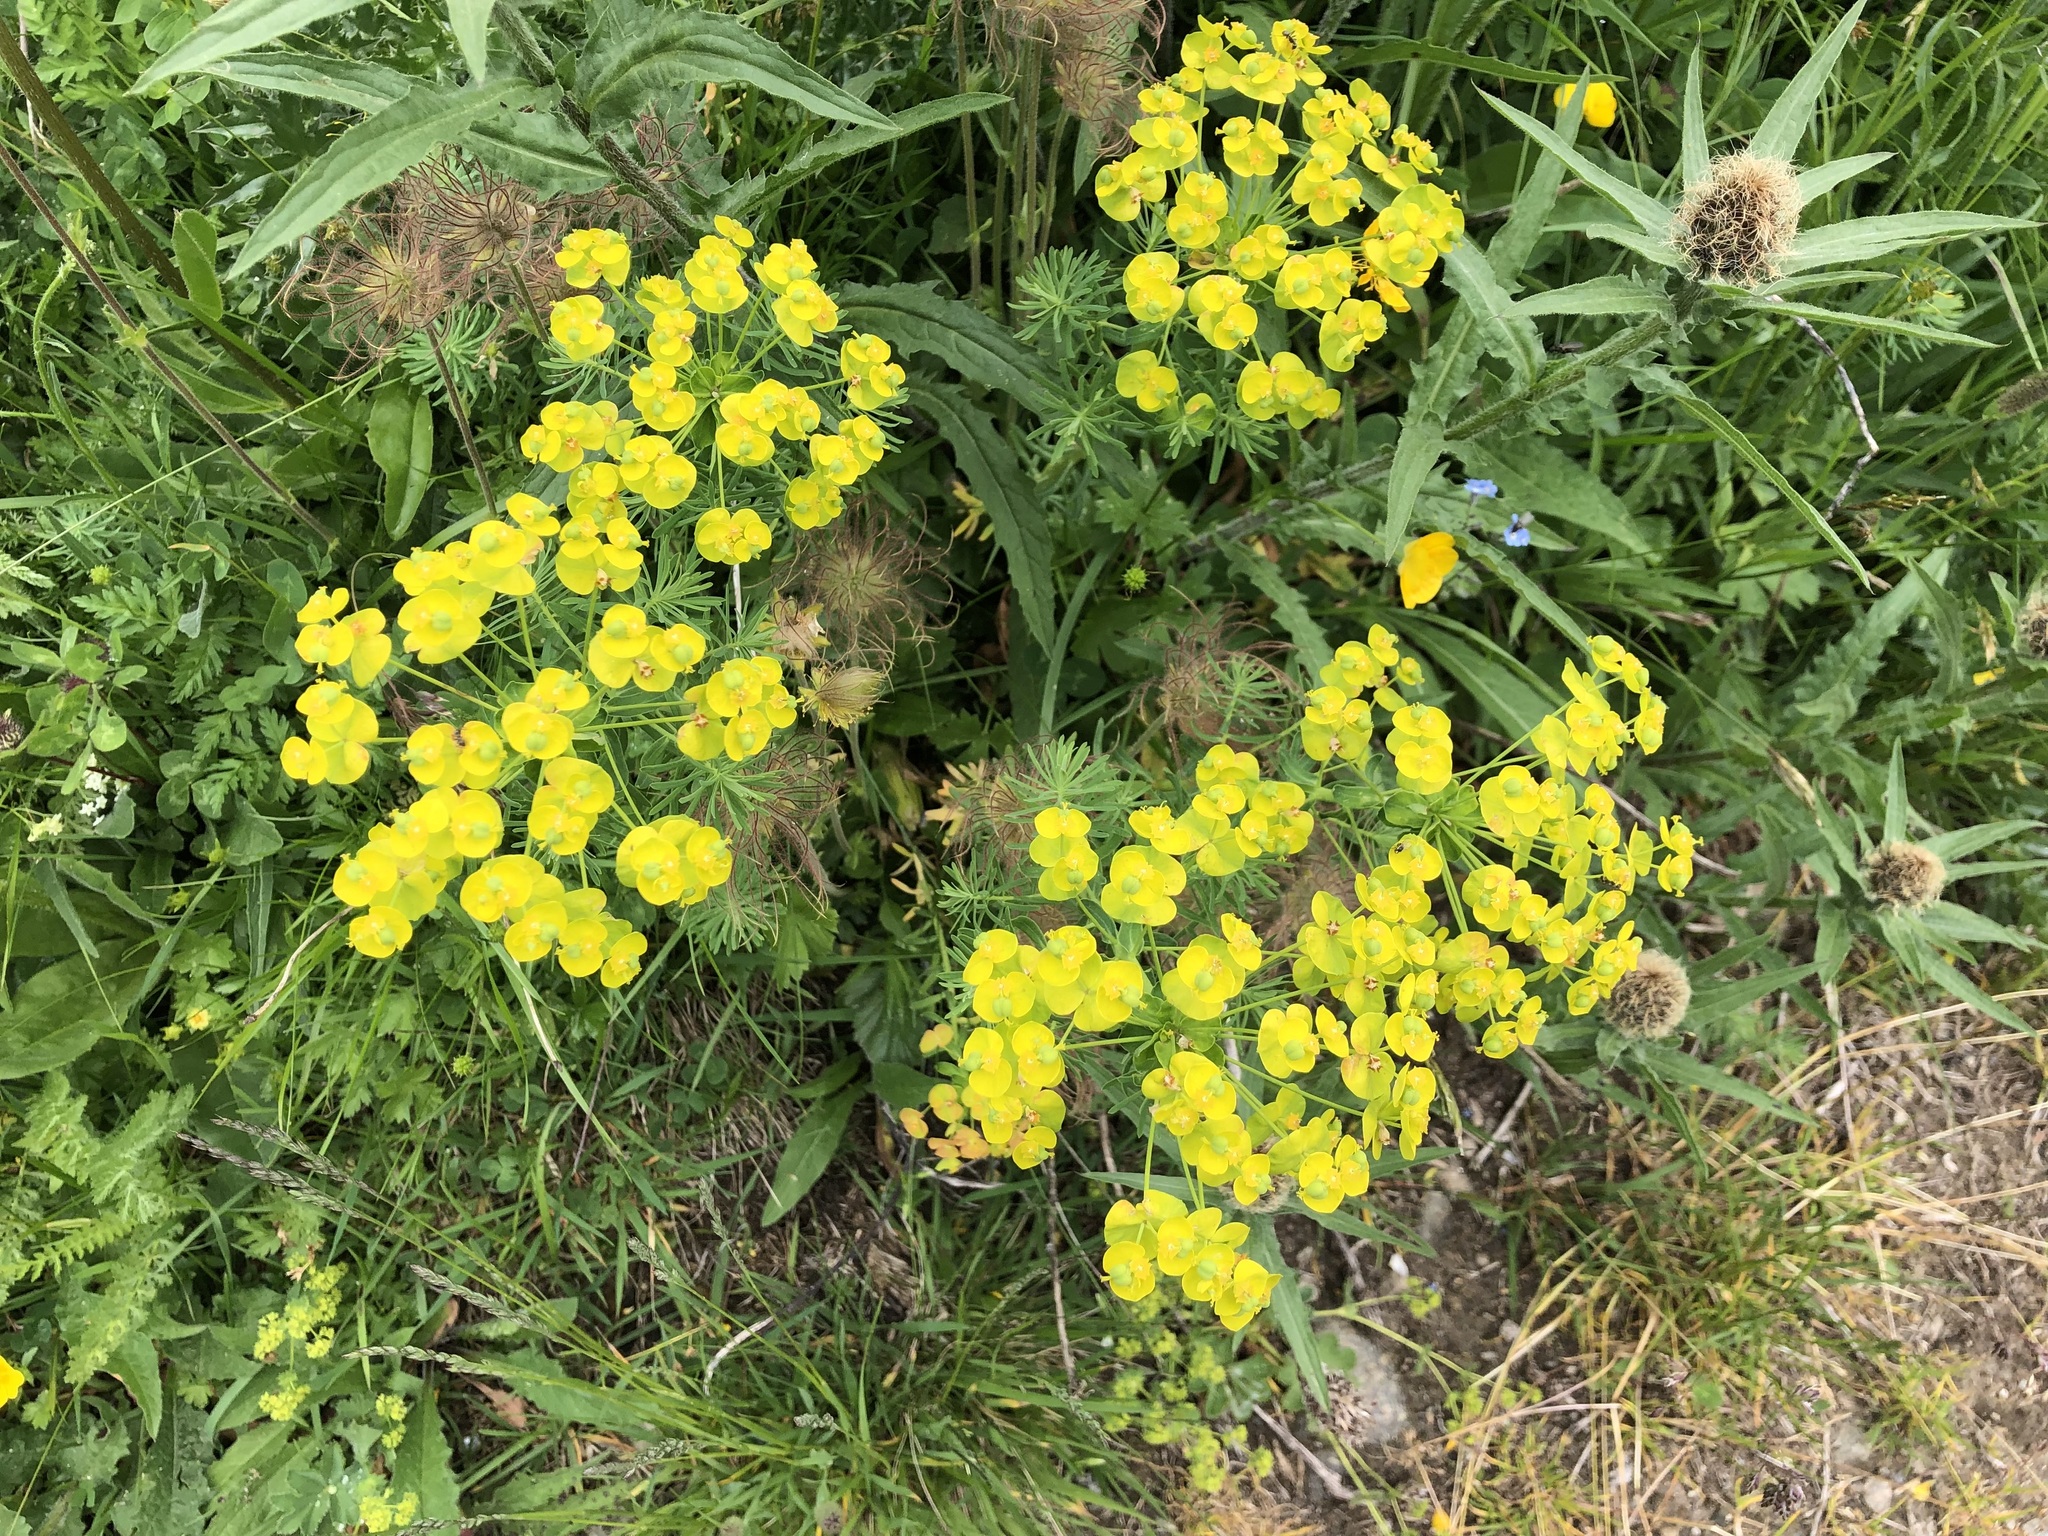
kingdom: Plantae
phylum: Tracheophyta
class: Magnoliopsida
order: Malpighiales
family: Euphorbiaceae
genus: Euphorbia
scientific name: Euphorbia cyparissias
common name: Cypress spurge
